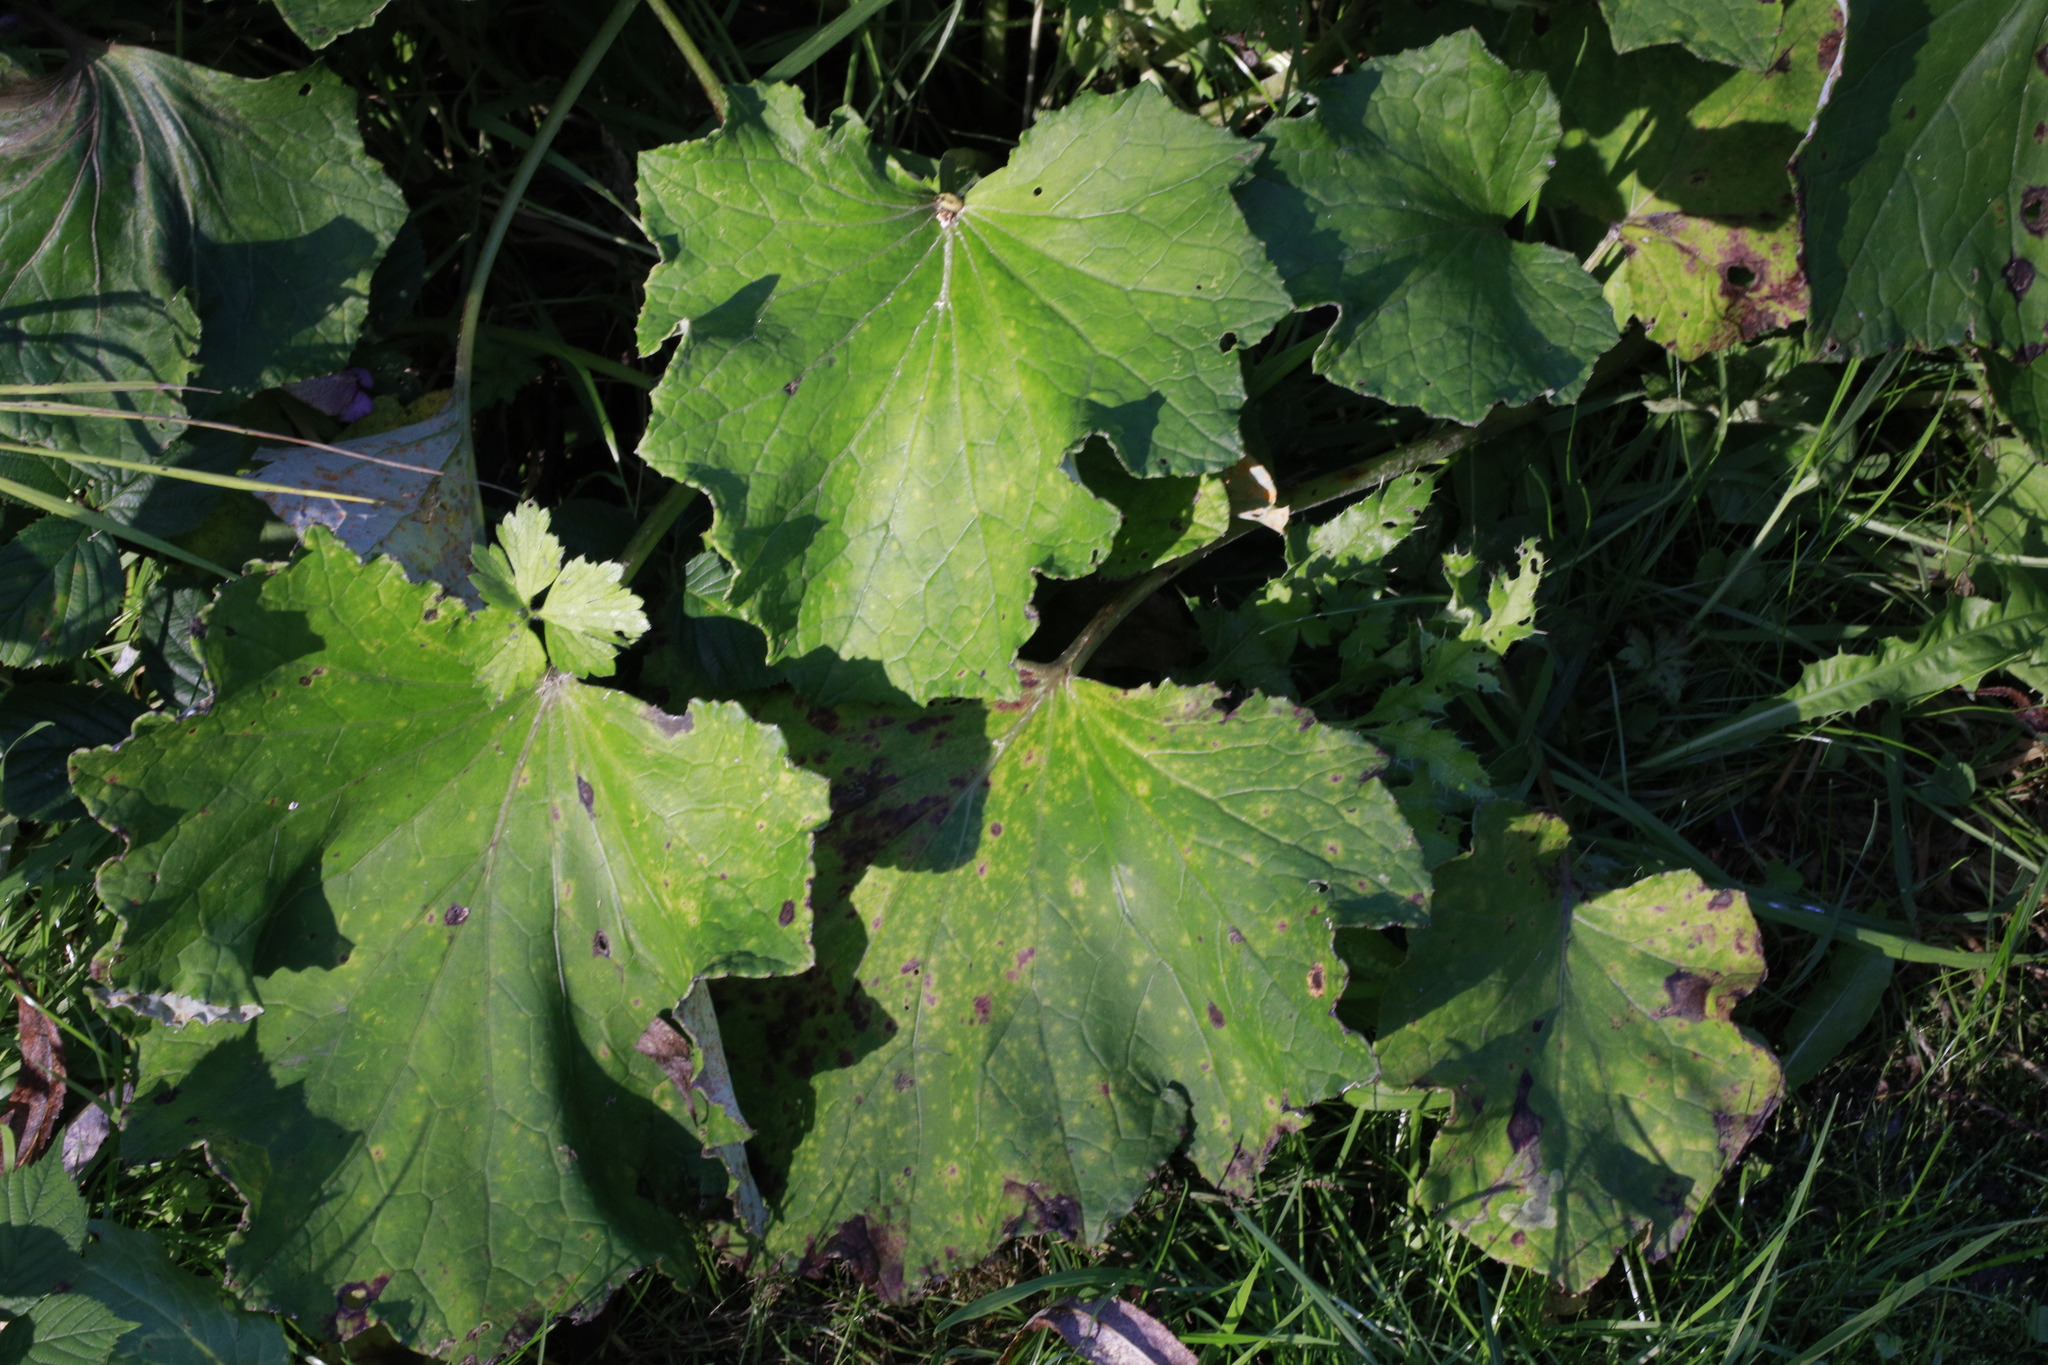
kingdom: Plantae
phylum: Tracheophyta
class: Magnoliopsida
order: Asterales
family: Asteraceae
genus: Tussilago
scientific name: Tussilago farfara
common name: Coltsfoot
